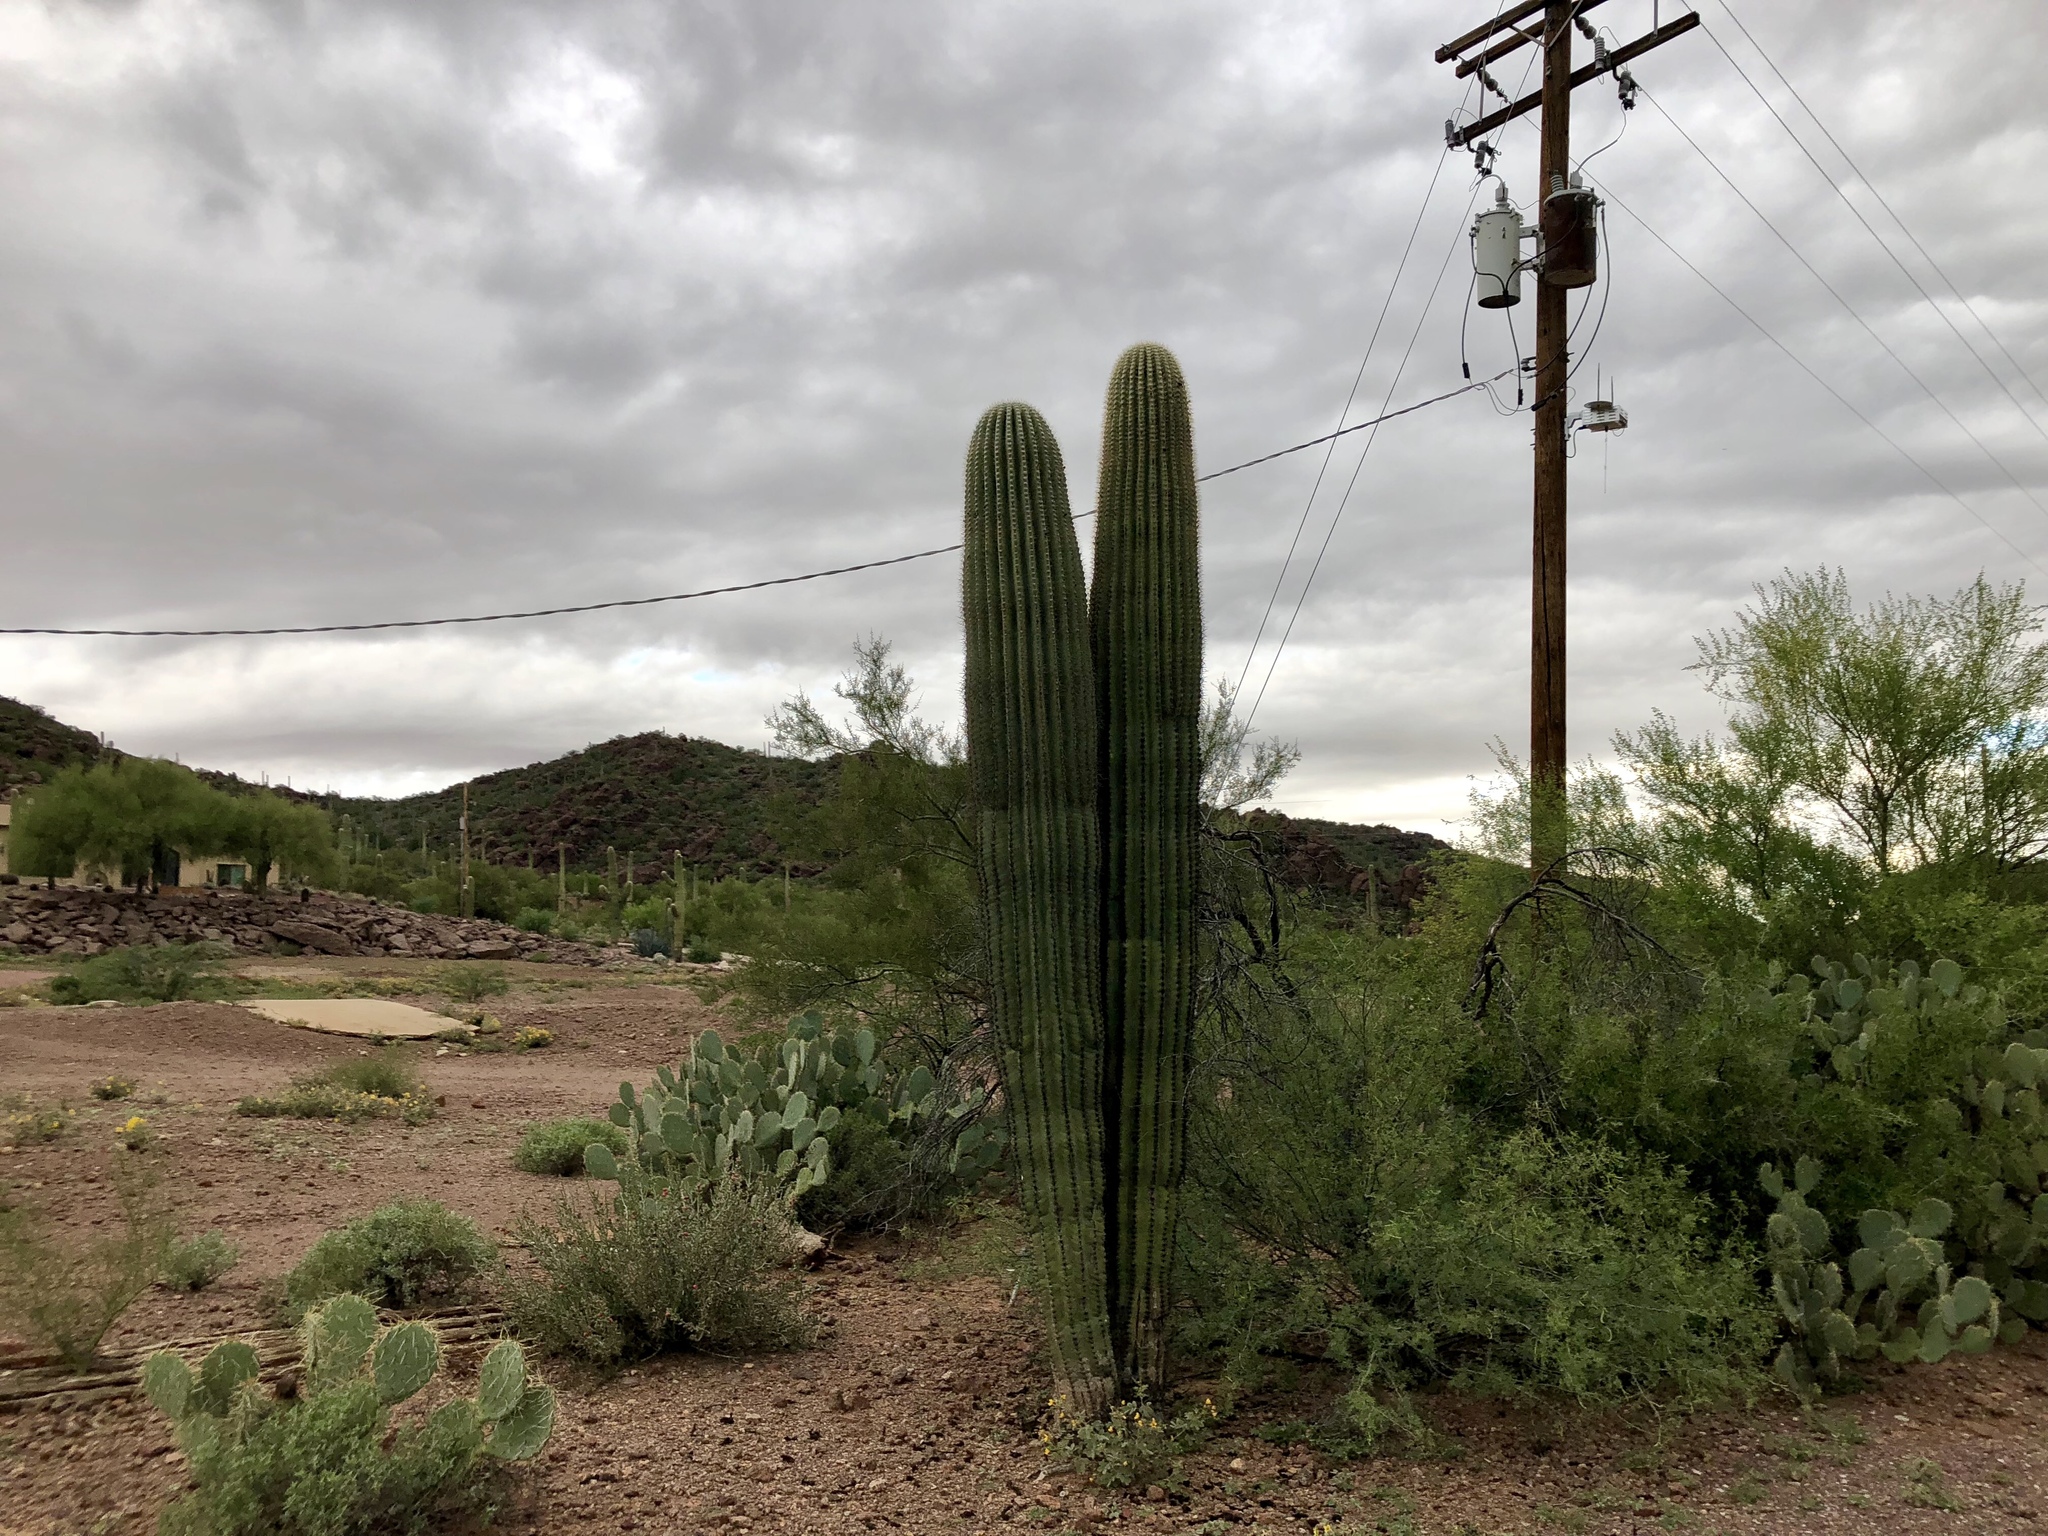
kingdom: Plantae
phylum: Tracheophyta
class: Magnoliopsida
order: Caryophyllales
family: Cactaceae
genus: Carnegiea
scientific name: Carnegiea gigantea
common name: Saguaro
